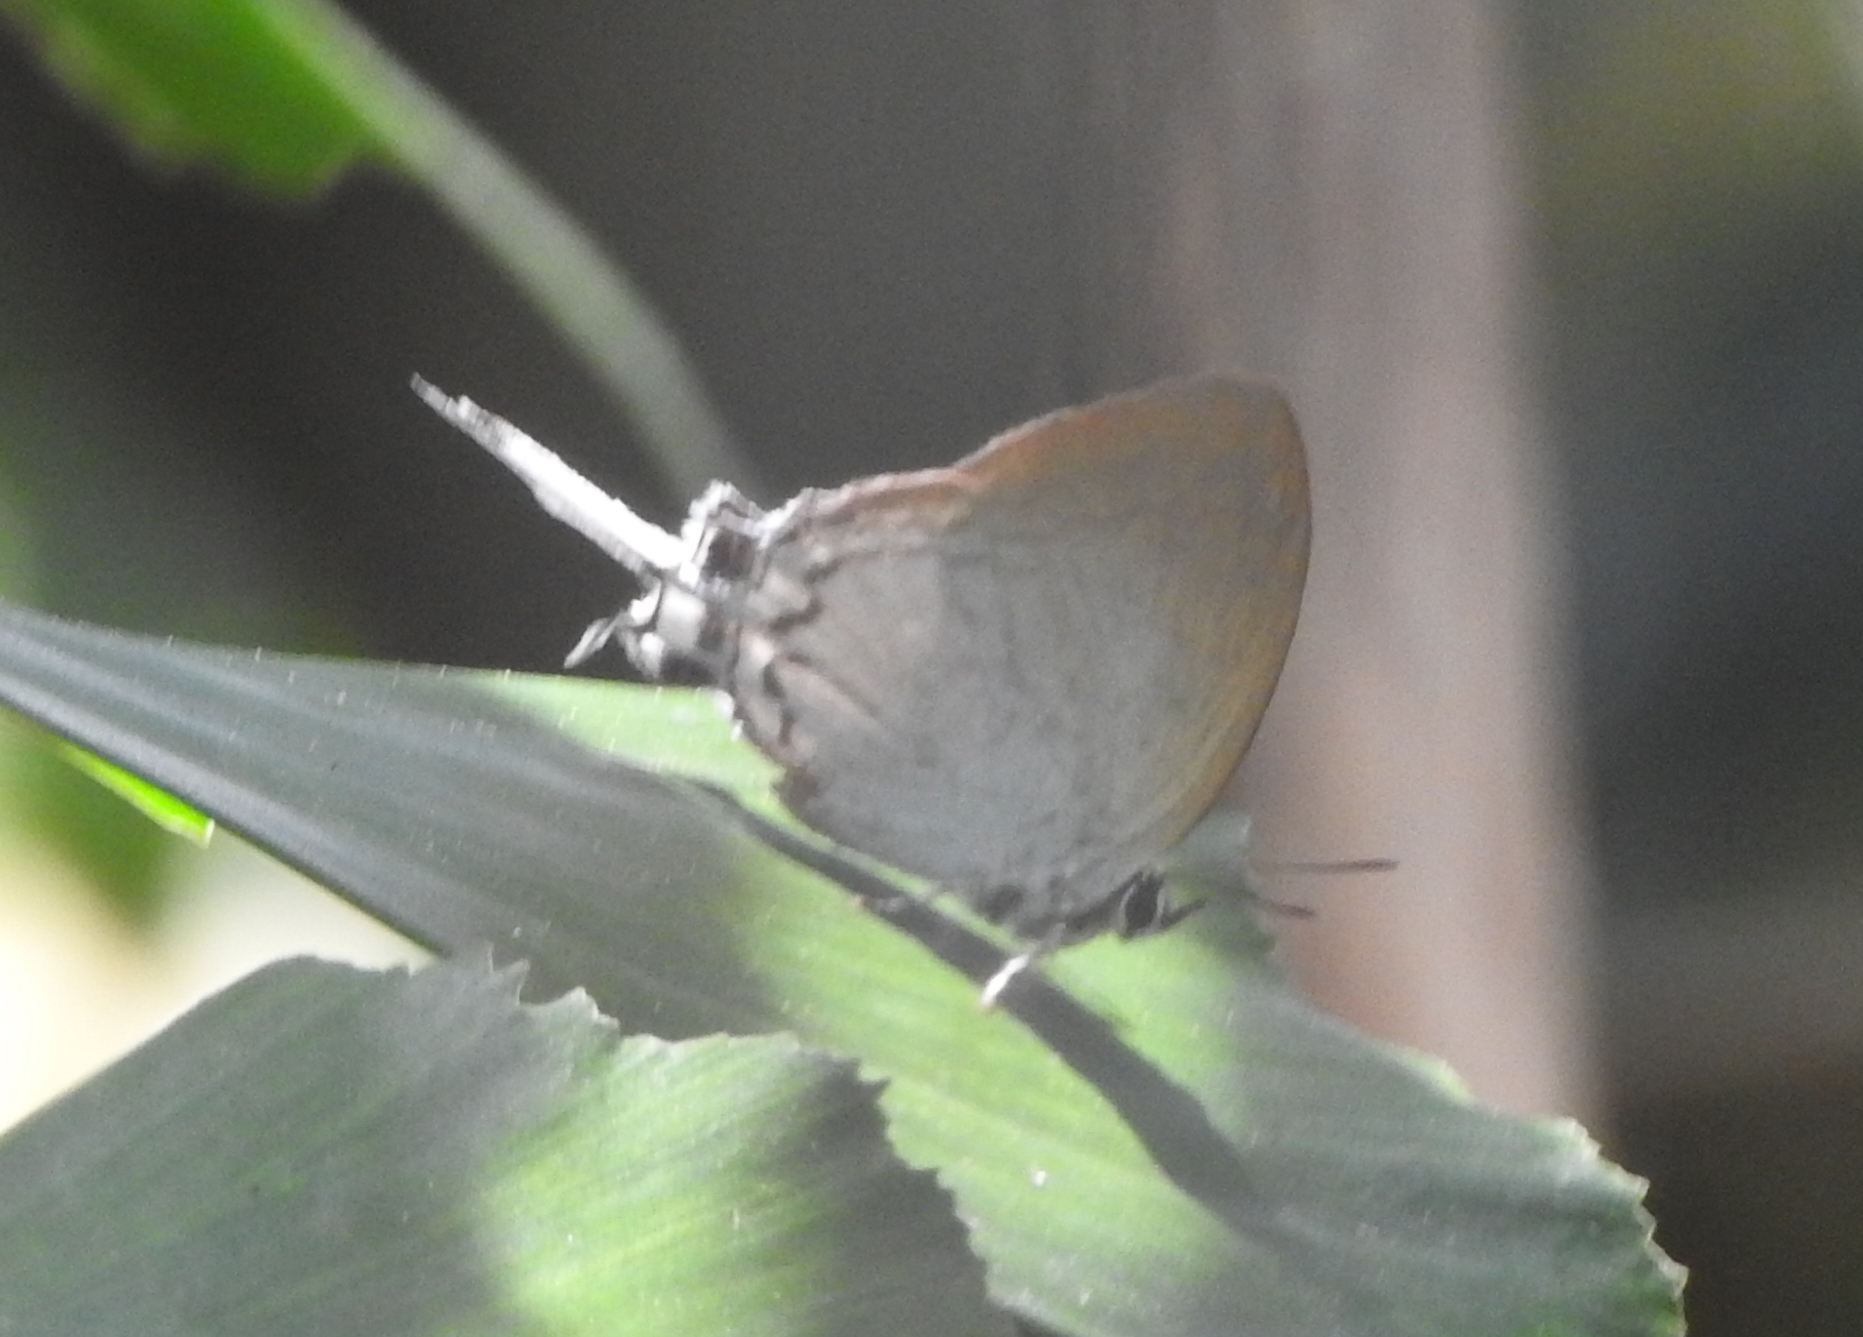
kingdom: Animalia
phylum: Arthropoda
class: Insecta
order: Lepidoptera
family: Lycaenidae
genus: Cheritra
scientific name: Cheritra freja
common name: Common imperial
